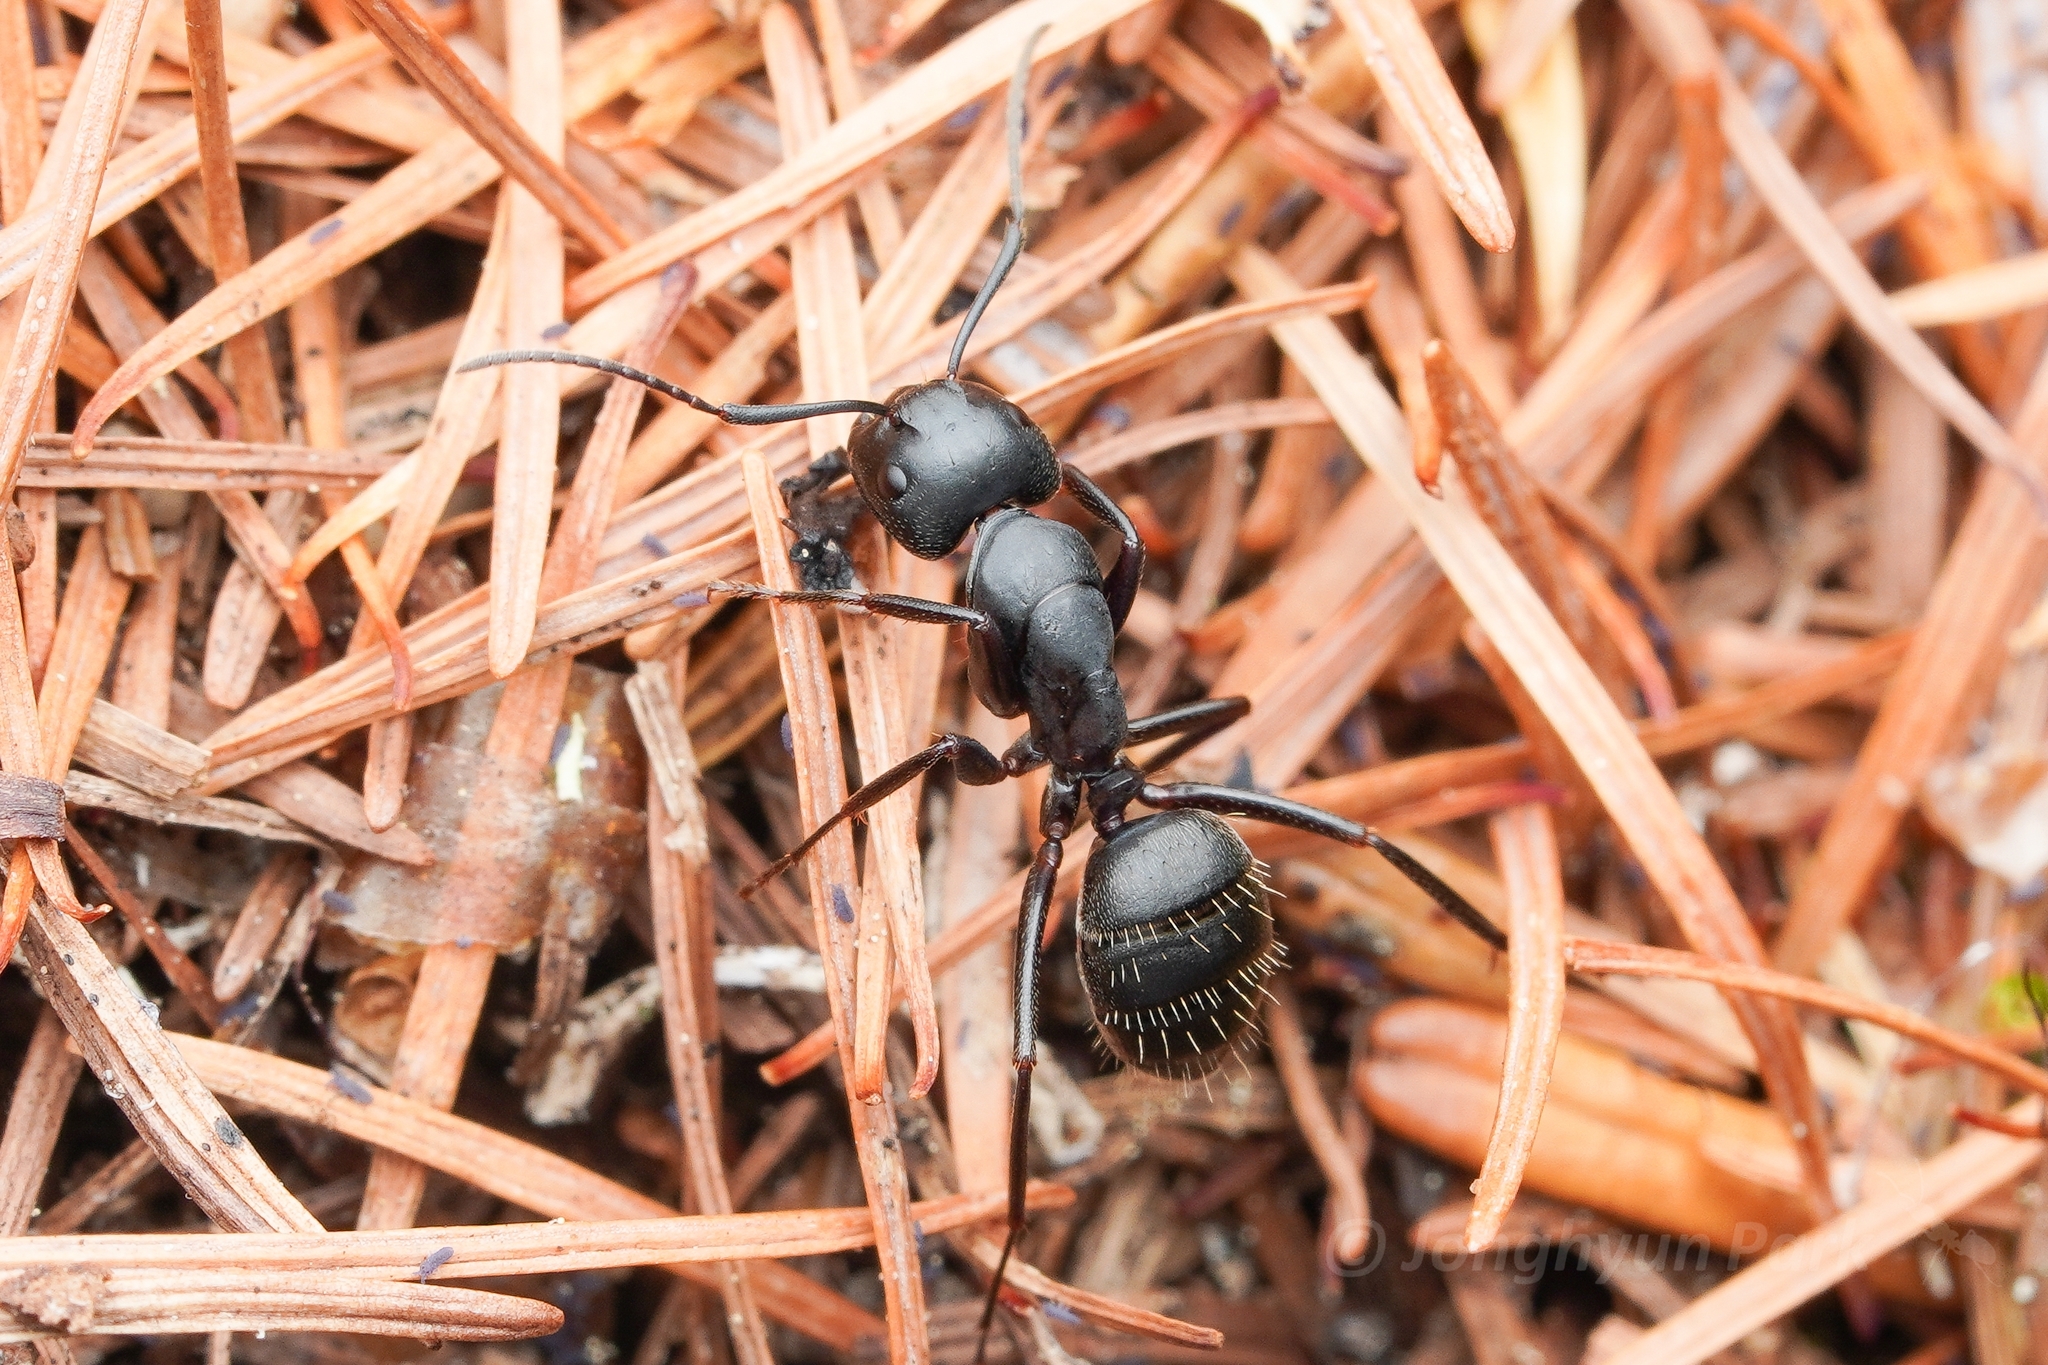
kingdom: Animalia
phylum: Arthropoda
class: Insecta
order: Hymenoptera
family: Formicidae
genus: Camponotus
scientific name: Camponotus herculeanus
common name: Hercules ant
